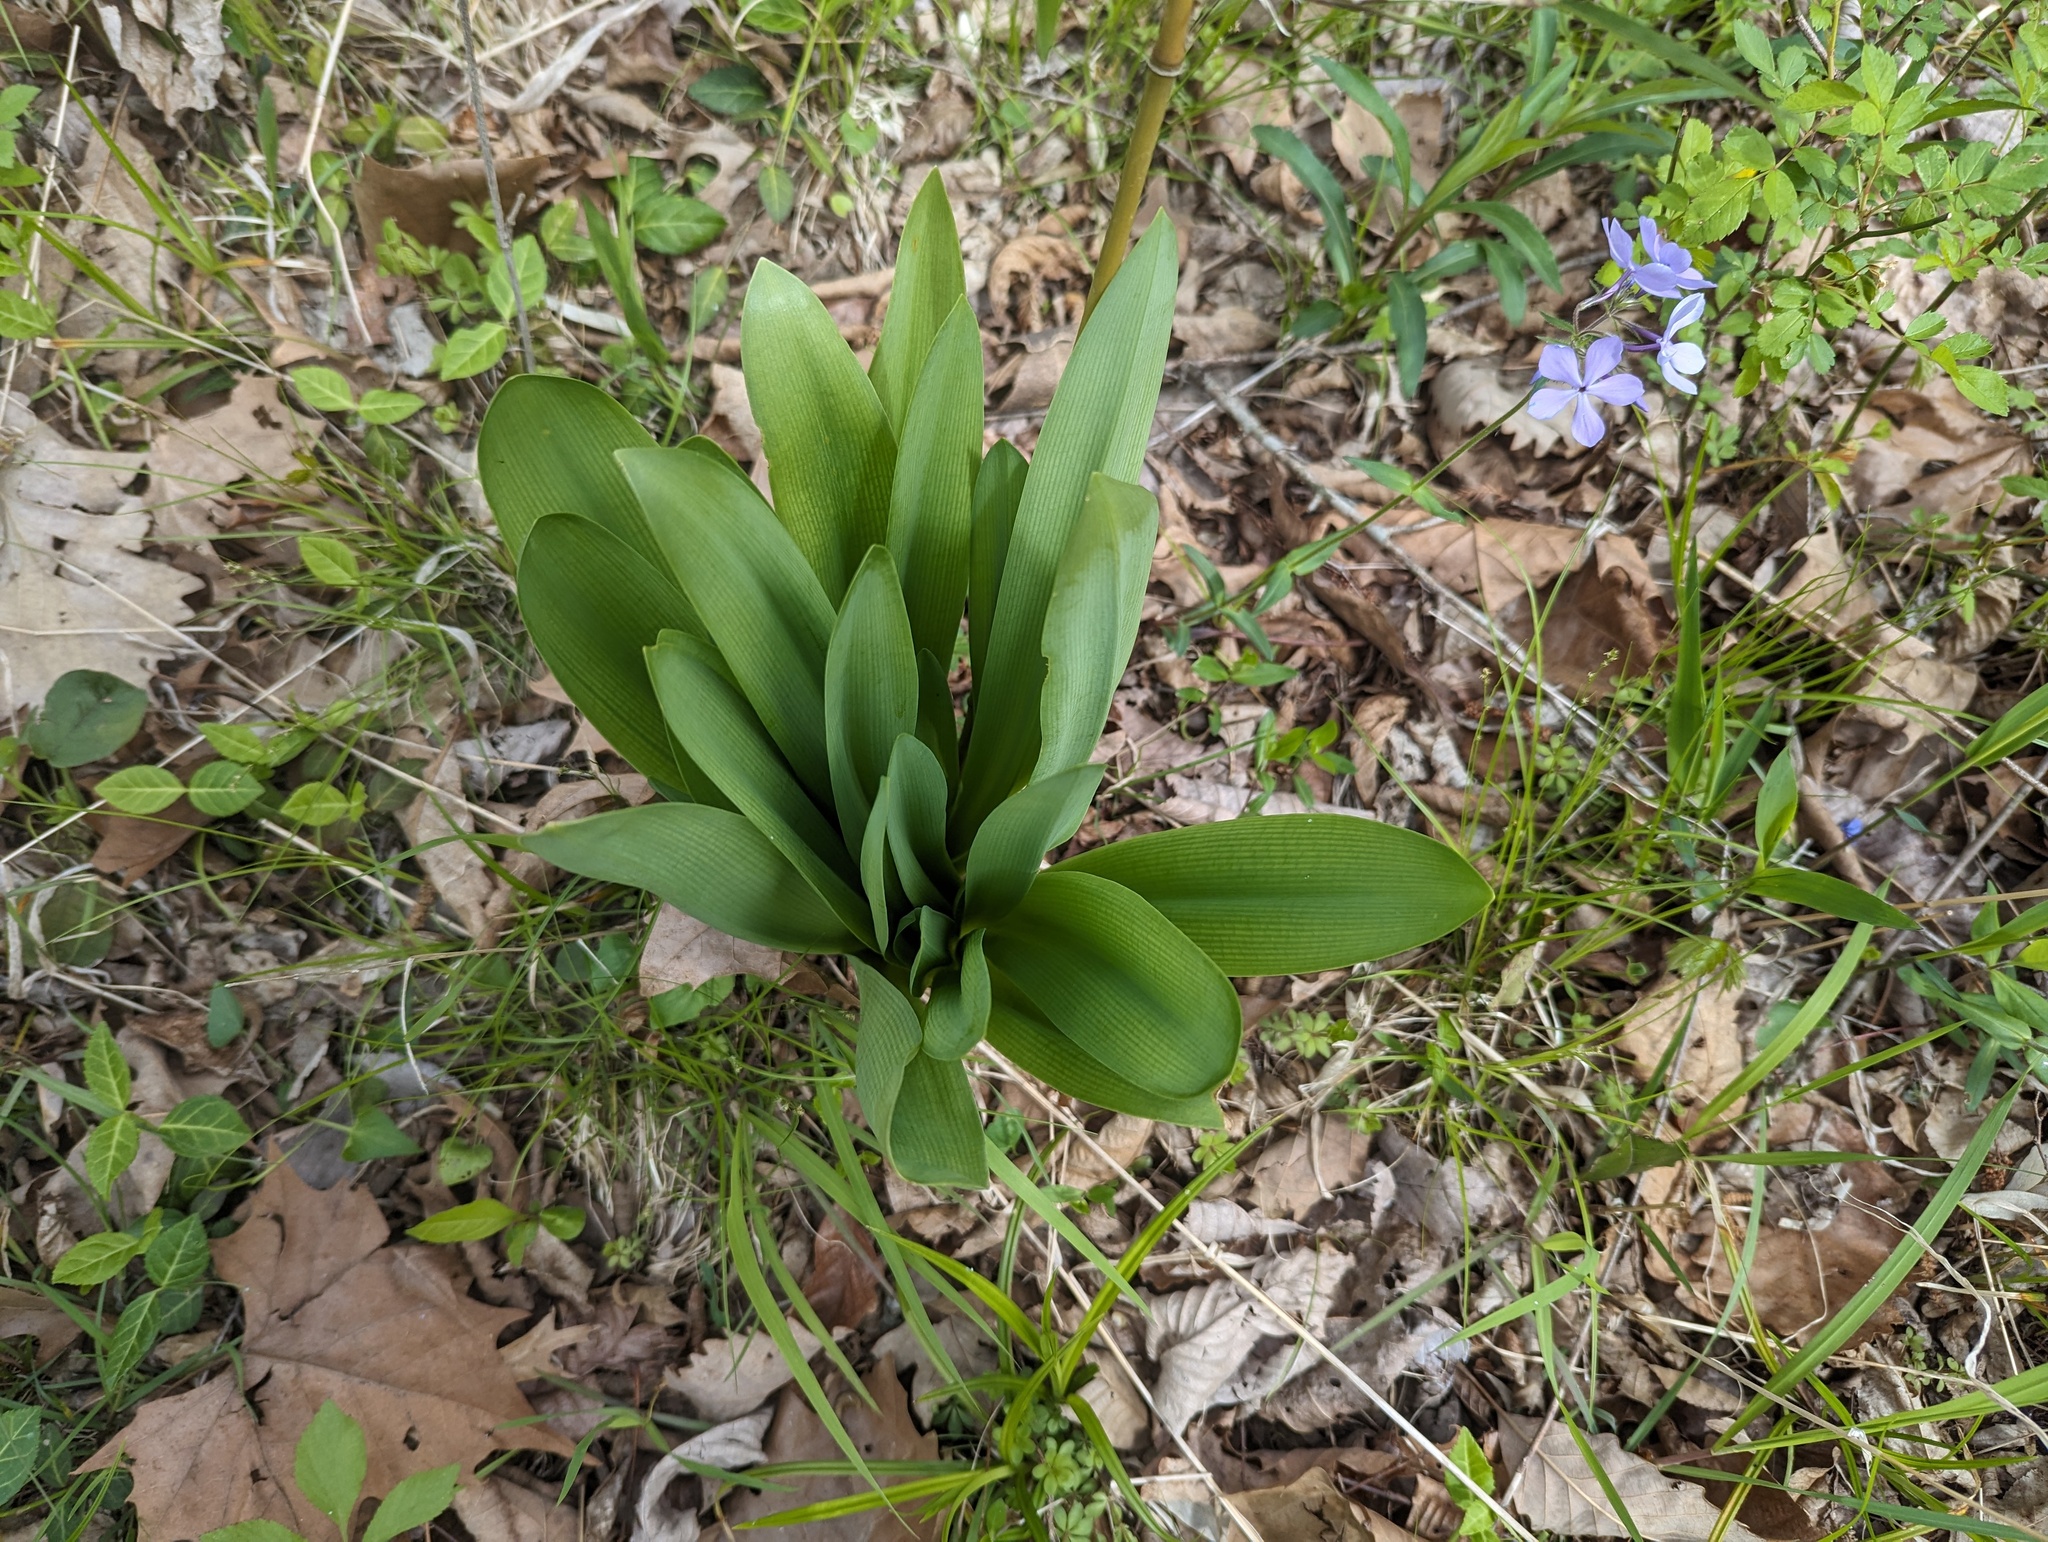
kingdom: Plantae
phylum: Tracheophyta
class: Liliopsida
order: Asparagales
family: Amaryllidaceae
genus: Hymenocallis
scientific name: Hymenocallis occidentalis
